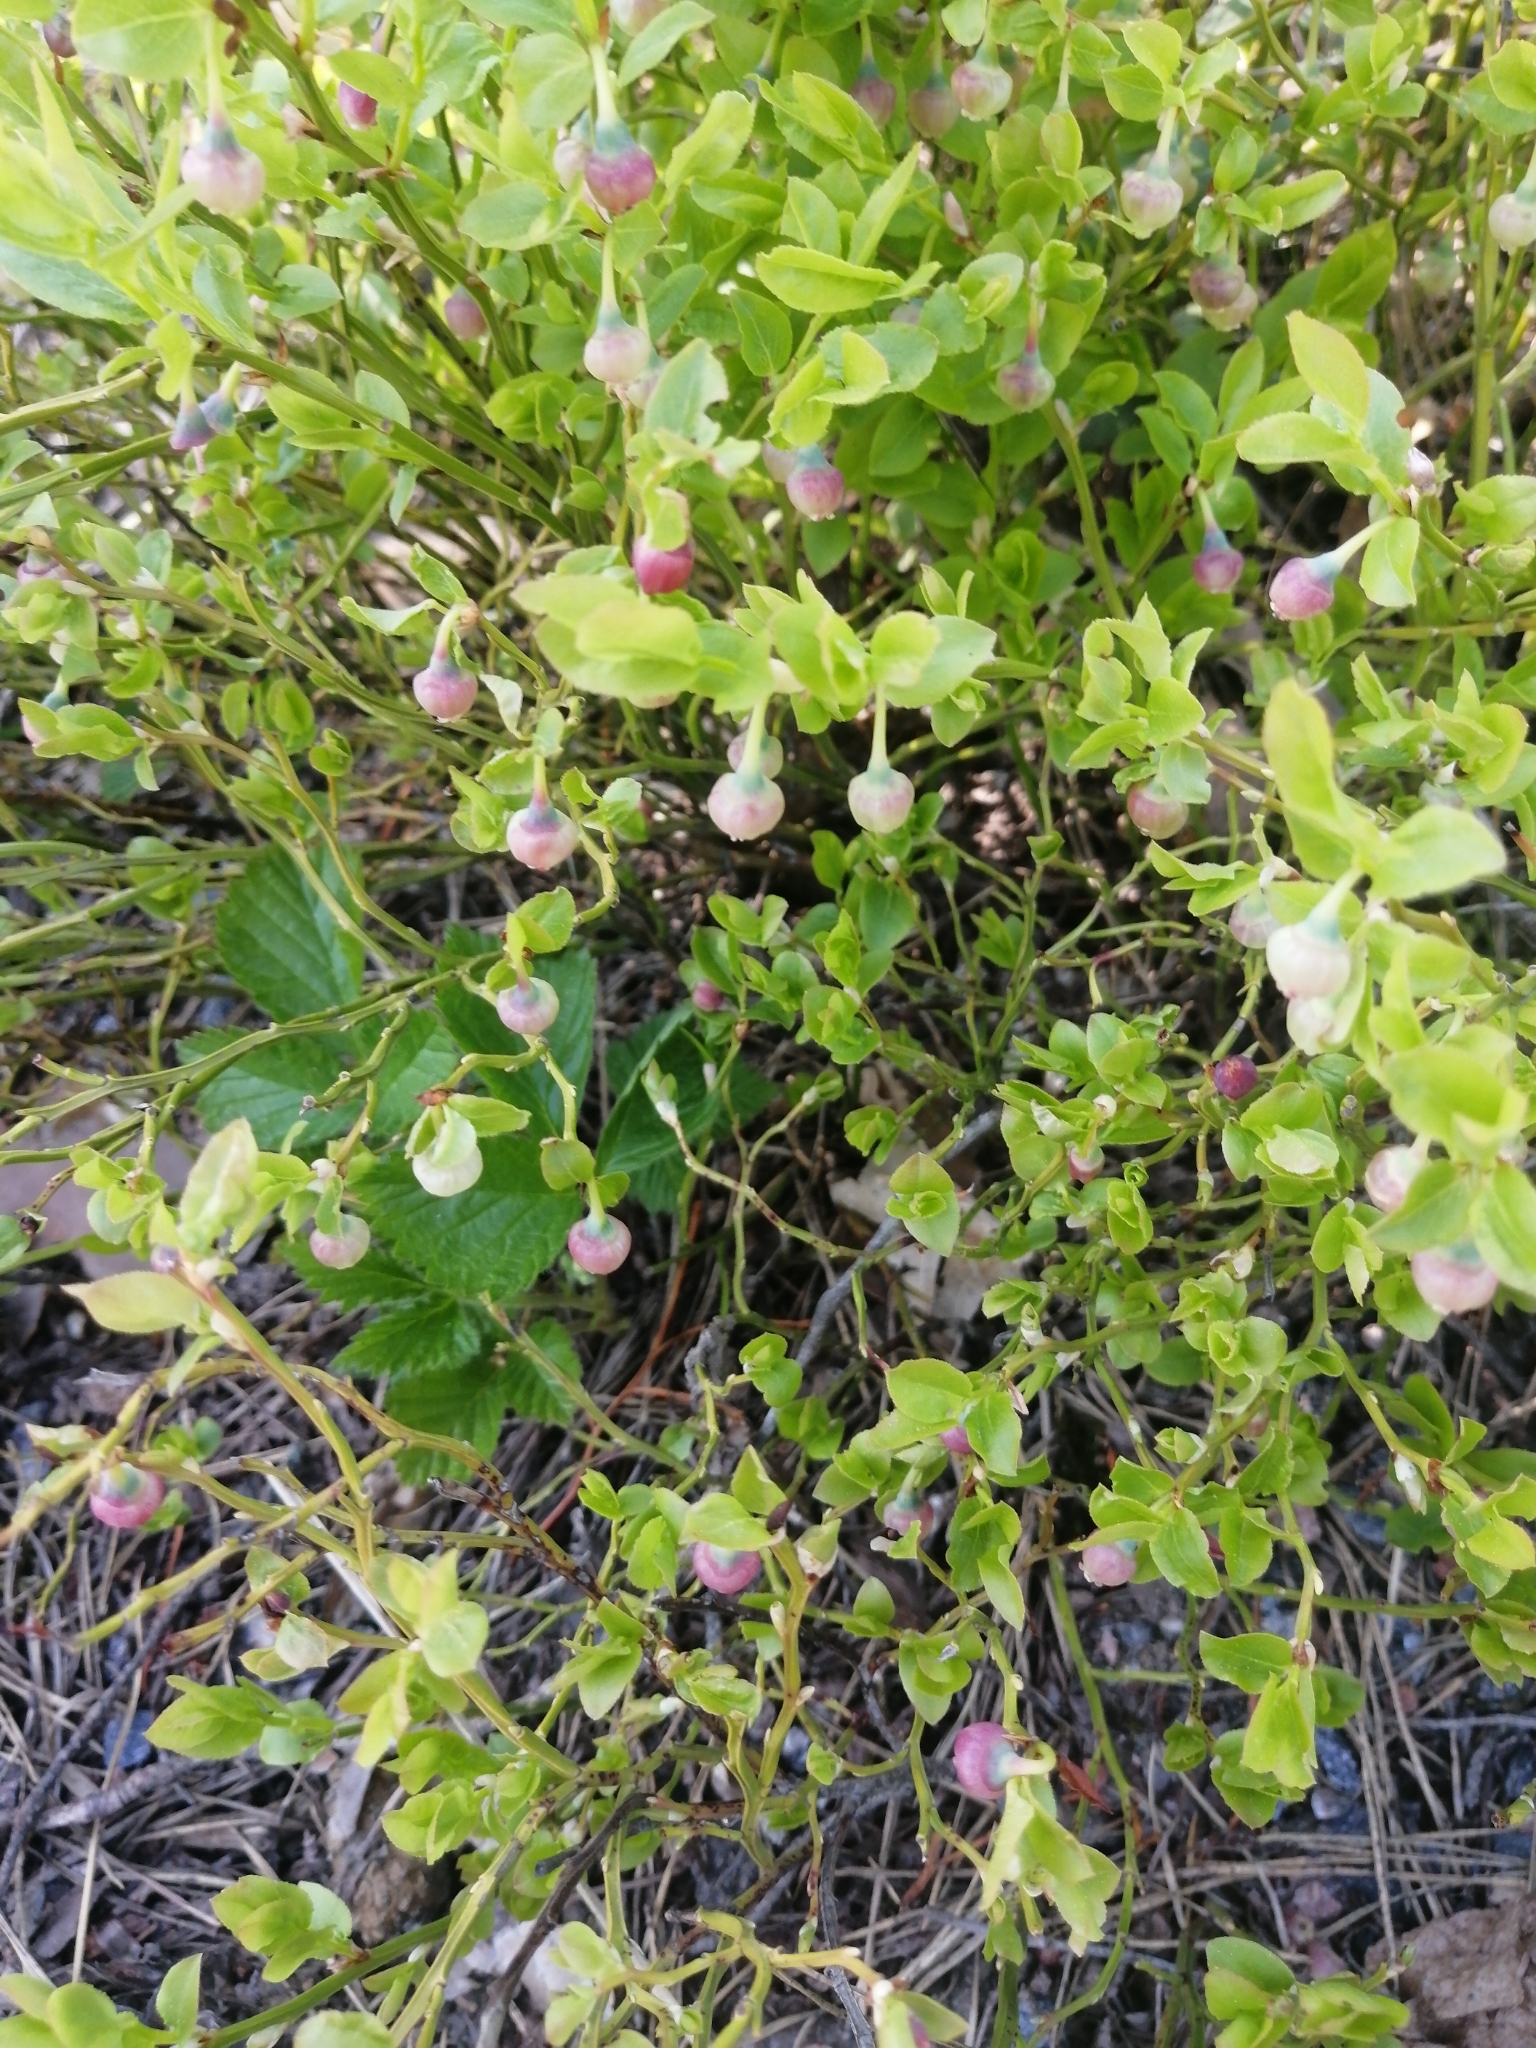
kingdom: Plantae
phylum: Tracheophyta
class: Magnoliopsida
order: Ericales
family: Ericaceae
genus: Vaccinium
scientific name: Vaccinium myrtillus
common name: Bilberry
